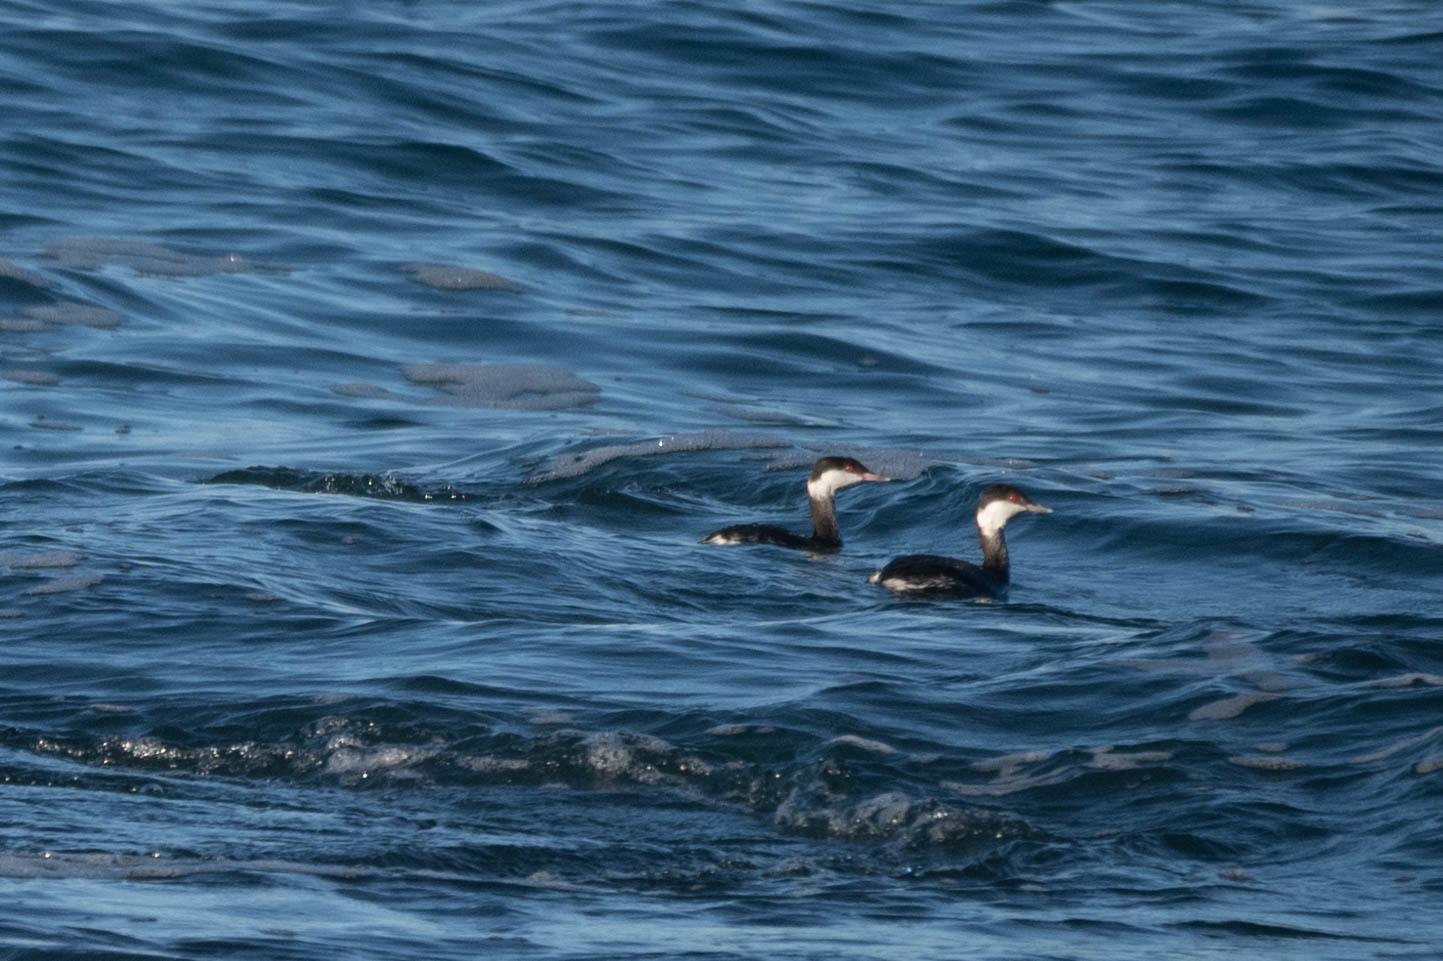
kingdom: Animalia
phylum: Chordata
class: Aves
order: Podicipediformes
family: Podicipedidae
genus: Podiceps
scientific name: Podiceps auritus
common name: Horned grebe
